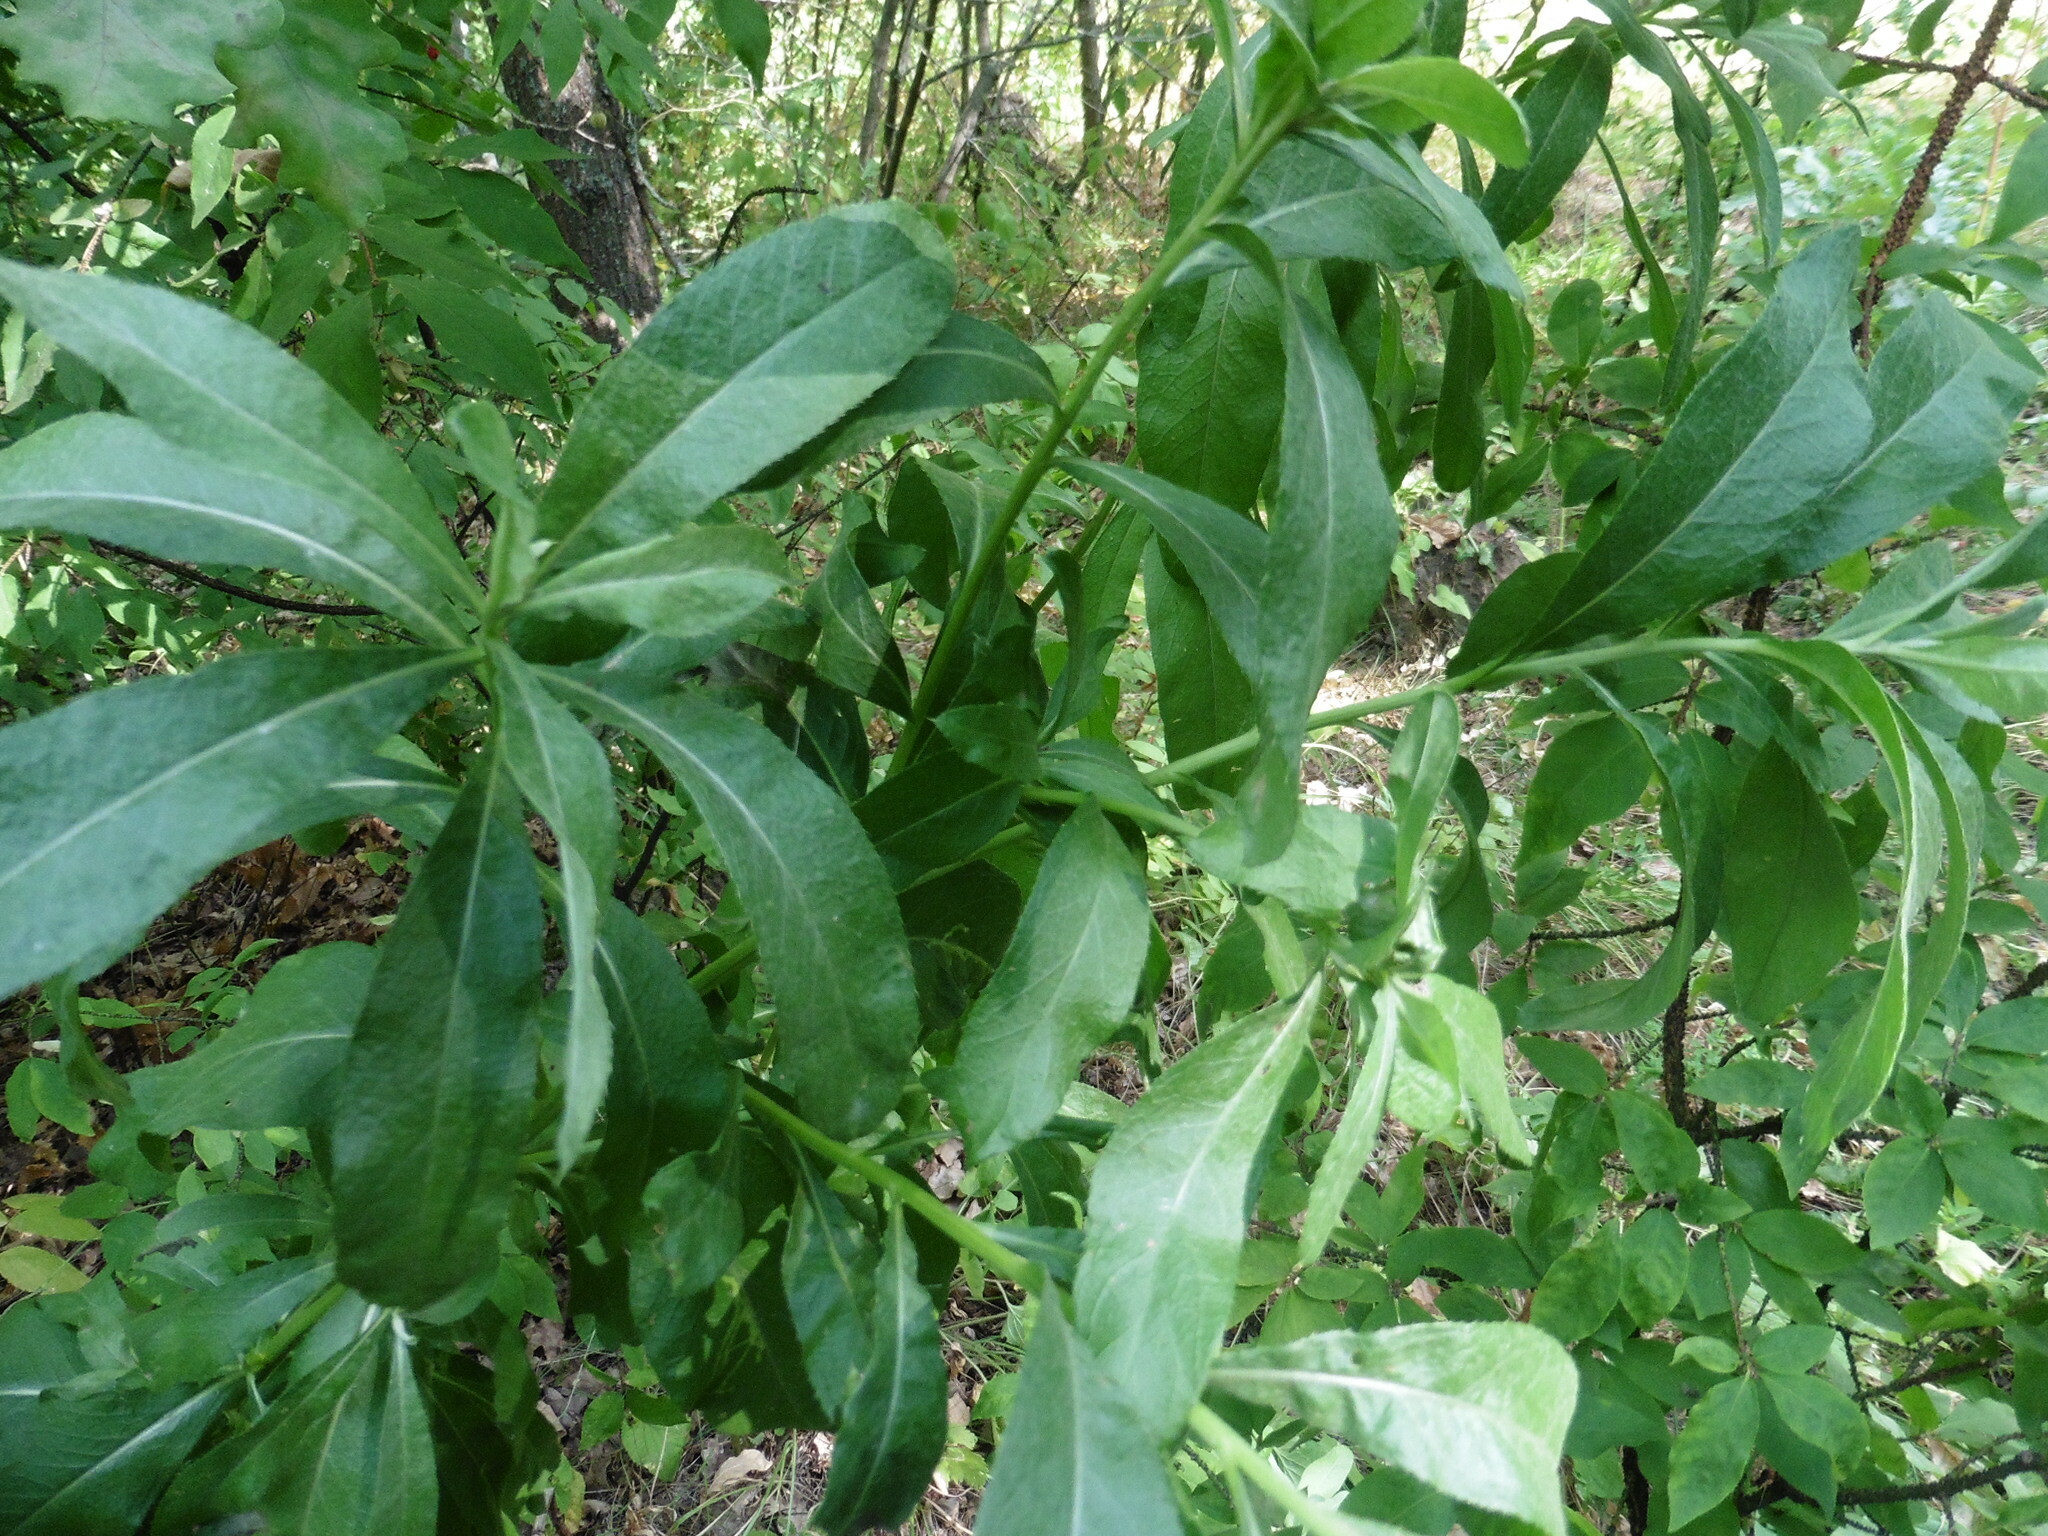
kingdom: Plantae
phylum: Tracheophyta
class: Magnoliopsida
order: Asterales
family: Asteraceae
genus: Cirsium
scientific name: Cirsium arvense
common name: Creeping thistle
